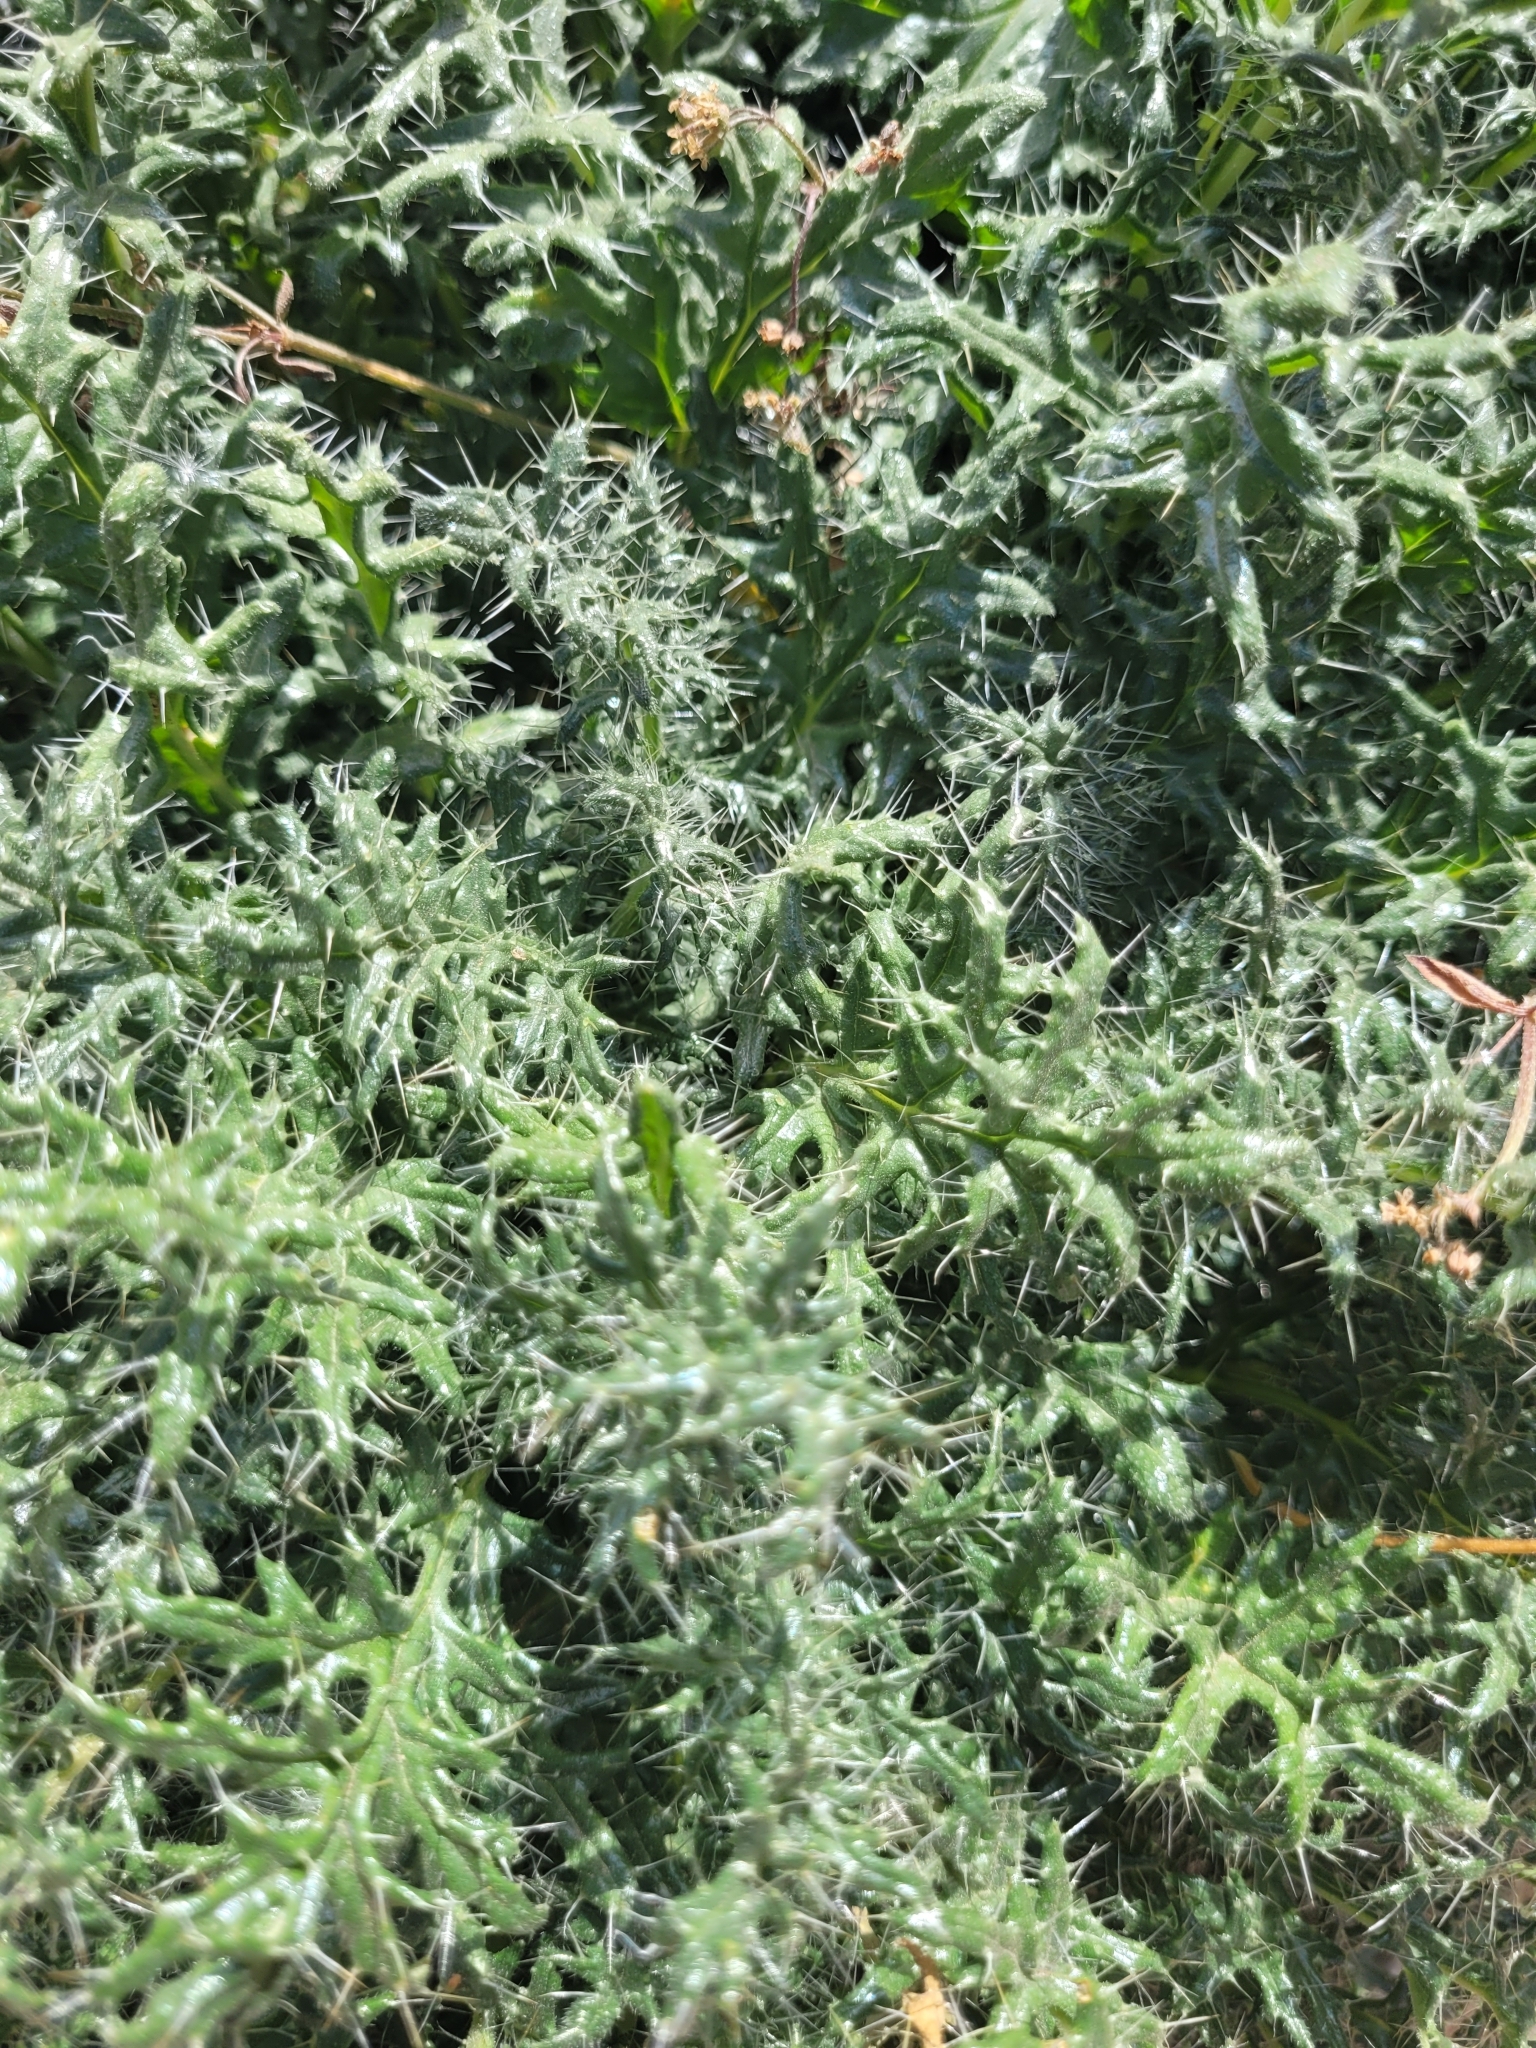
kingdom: Plantae
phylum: Tracheophyta
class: Magnoliopsida
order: Cornales
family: Loasaceae
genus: Caiophora
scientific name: Caiophora coronata
